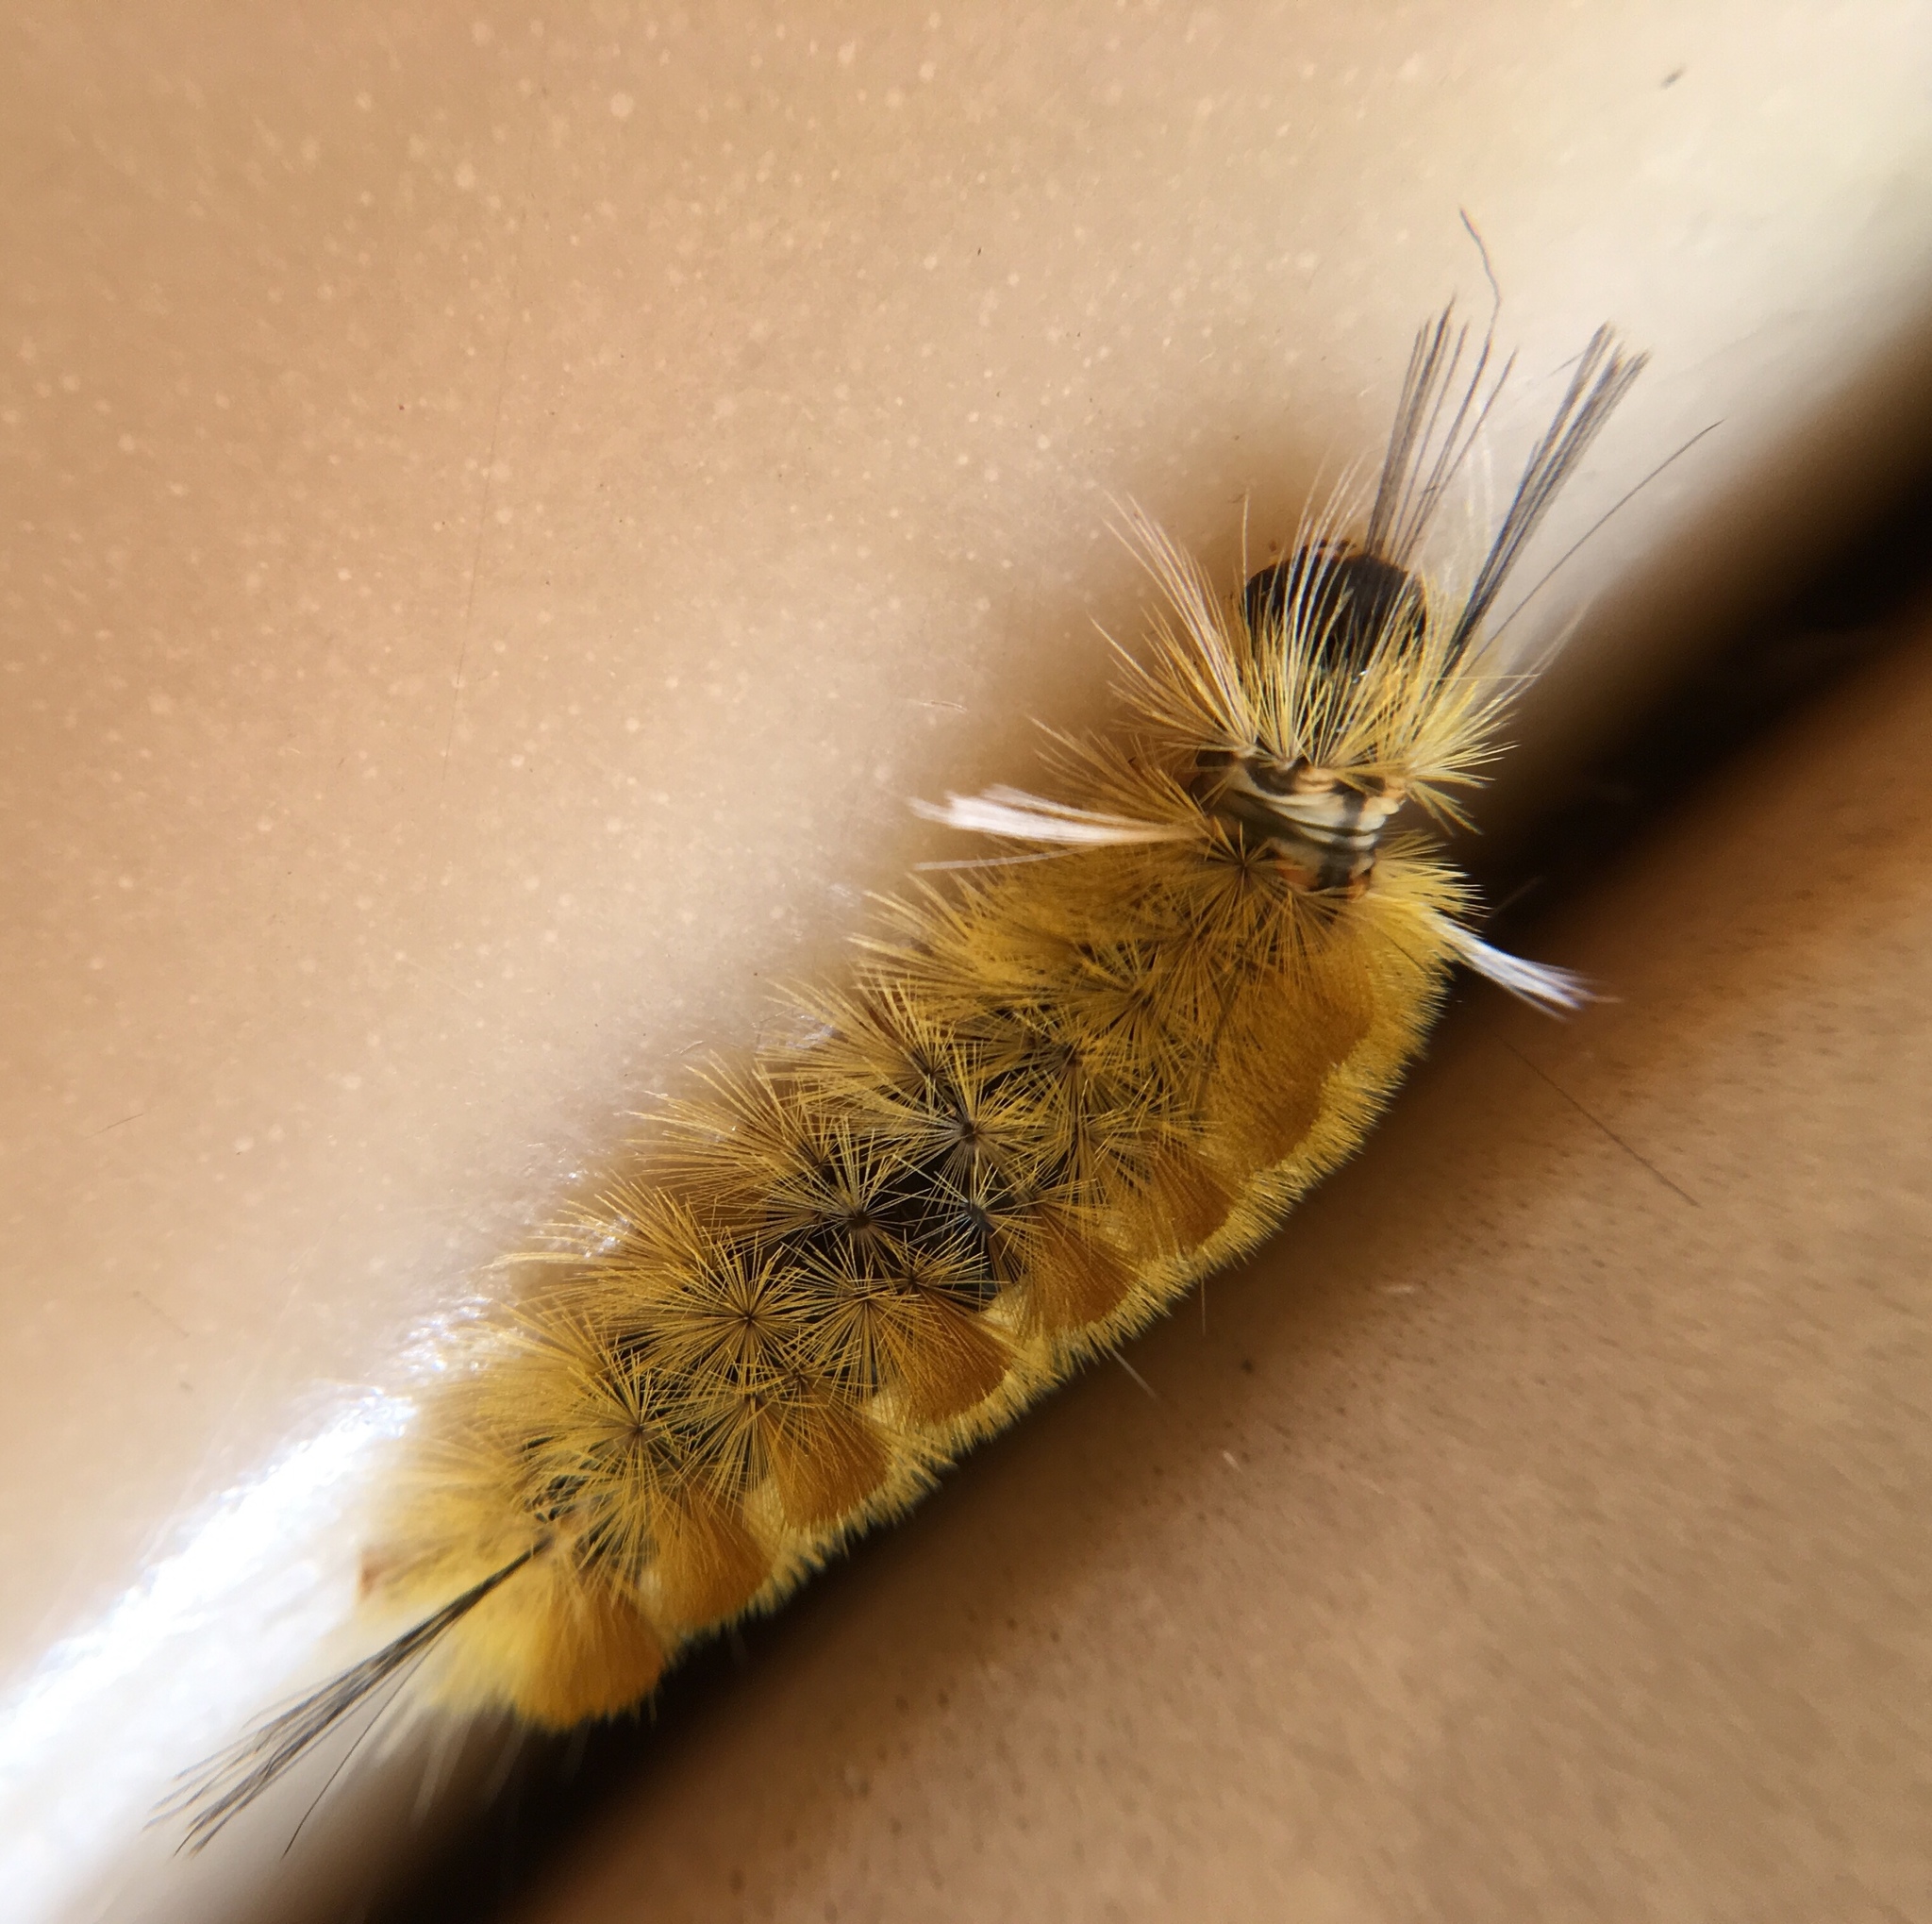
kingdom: Animalia
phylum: Arthropoda
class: Insecta
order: Lepidoptera
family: Erebidae
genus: Halysidota
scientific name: Halysidota tessellaris
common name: Banded tussock moth
